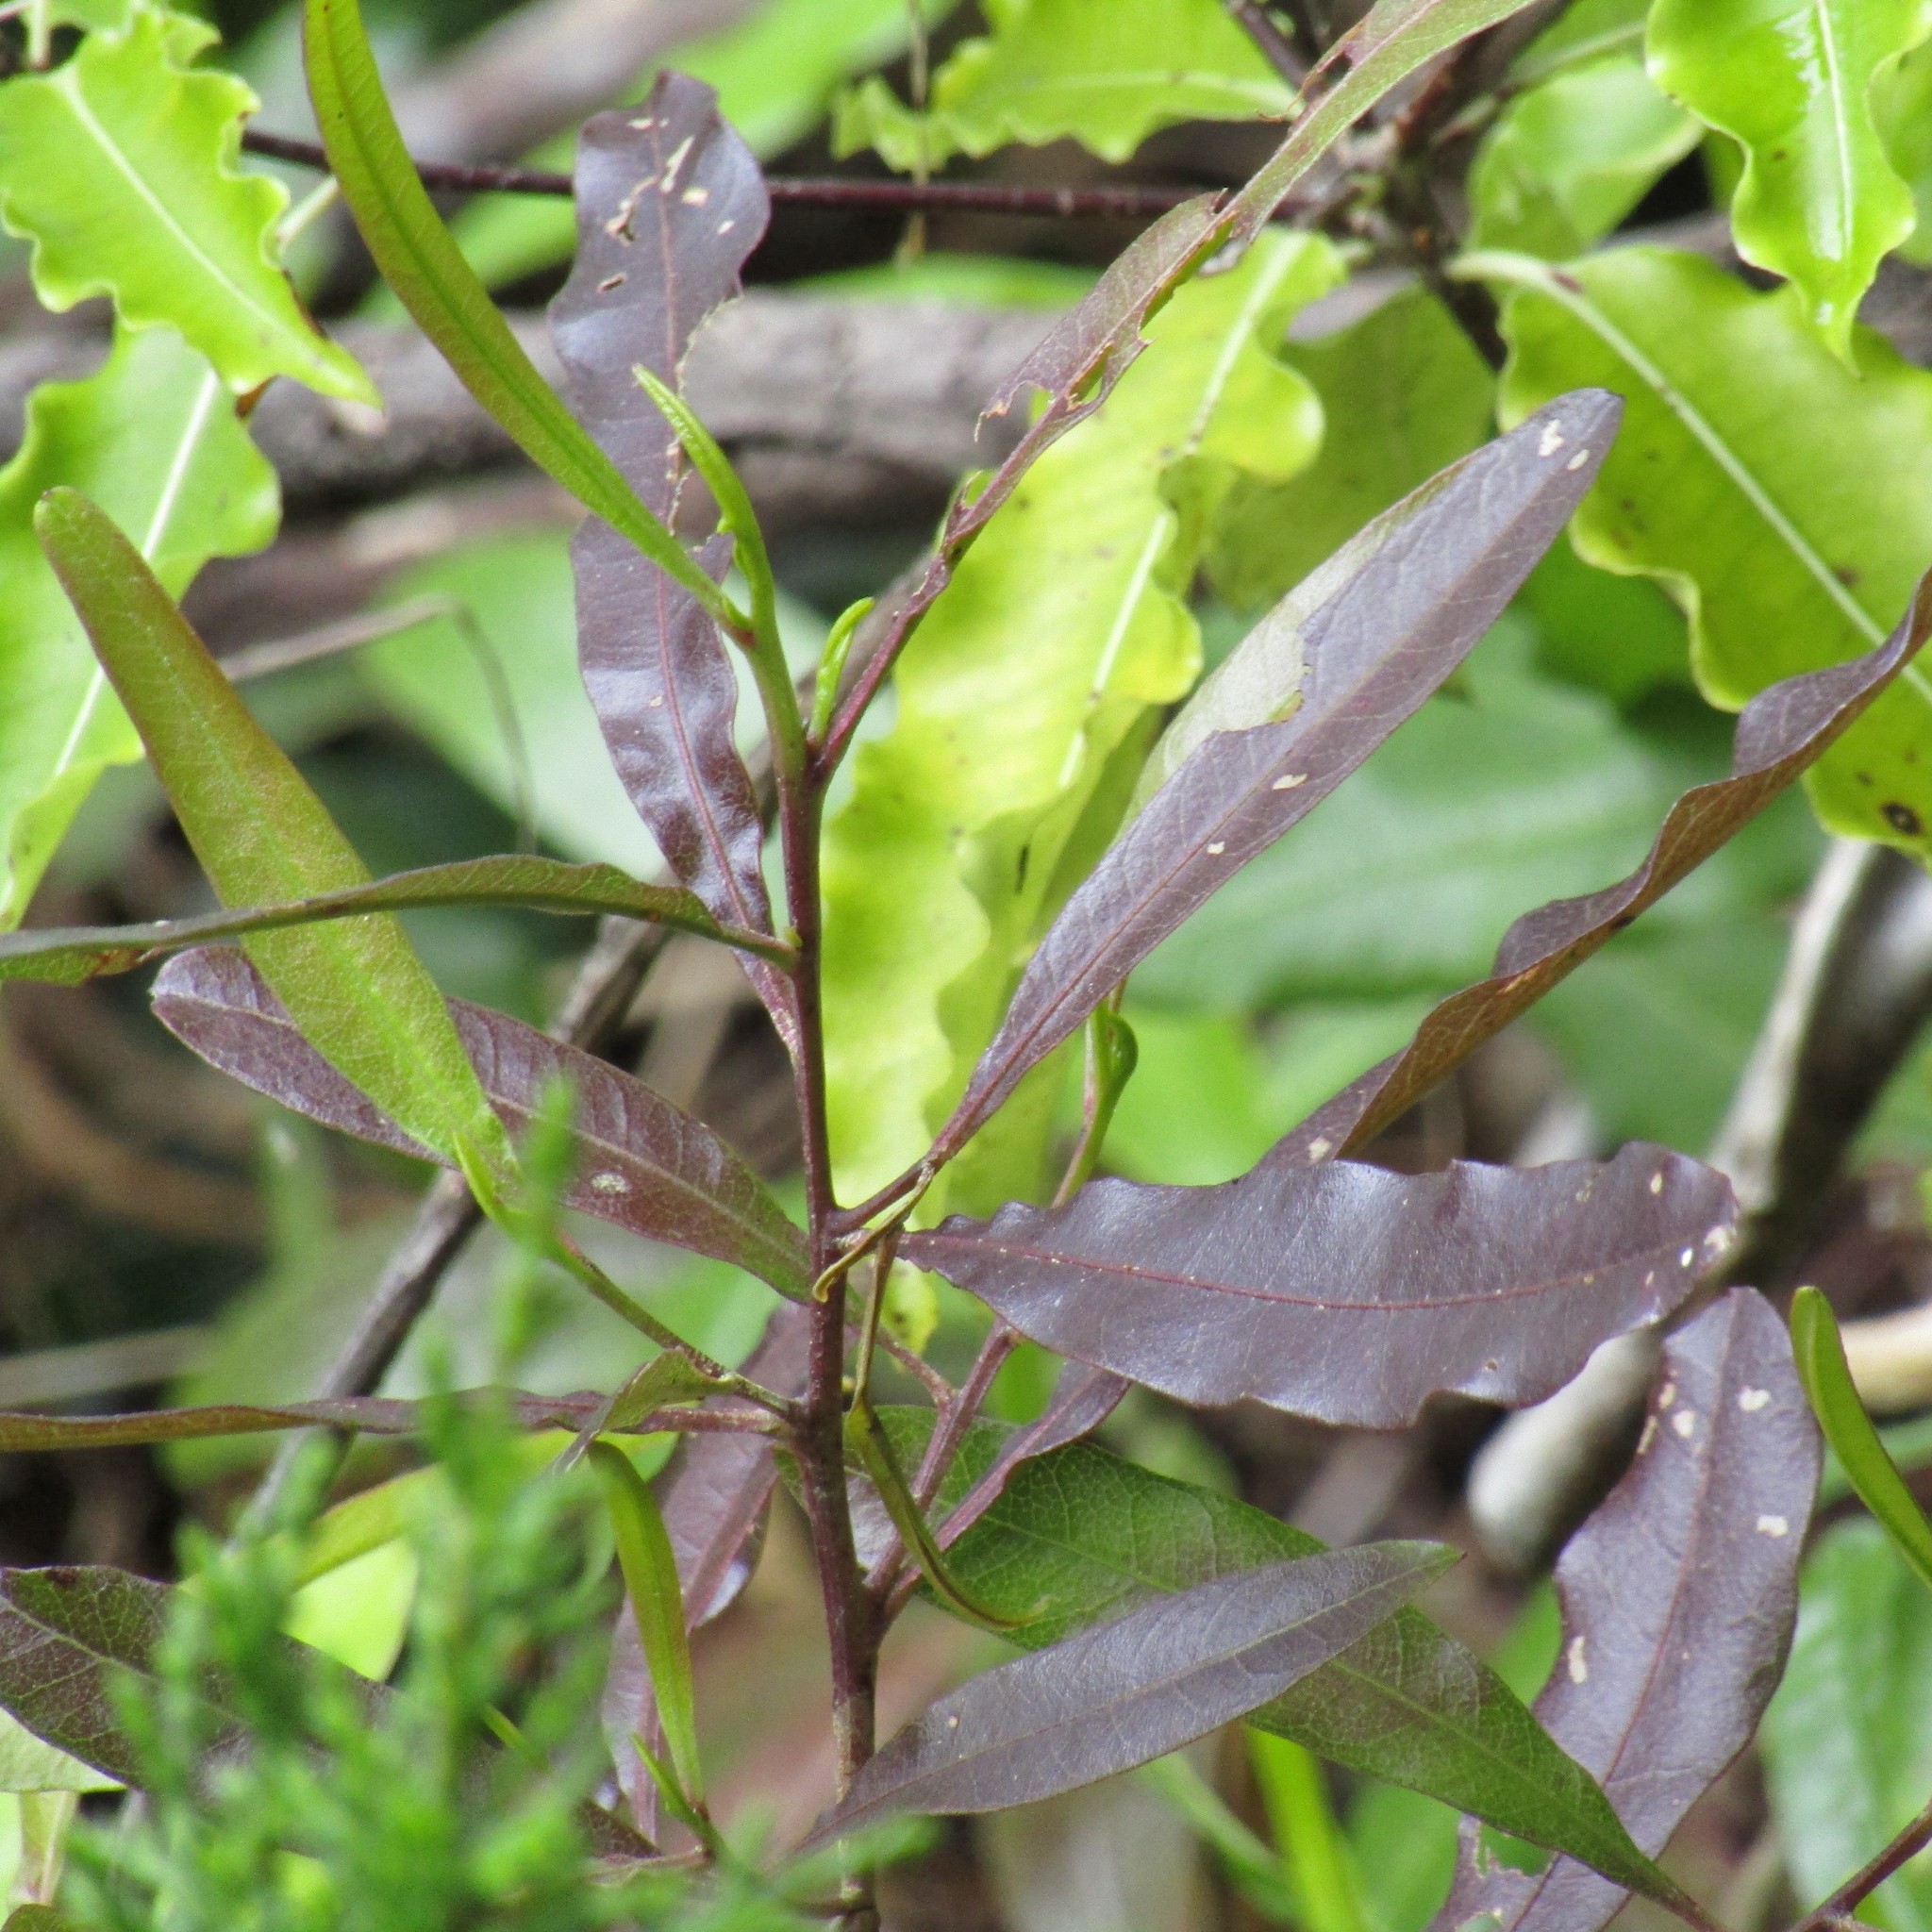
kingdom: Plantae
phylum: Tracheophyta
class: Magnoliopsida
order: Sapindales
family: Sapindaceae
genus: Dodonaea
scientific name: Dodonaea viscosa
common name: Hopbush
